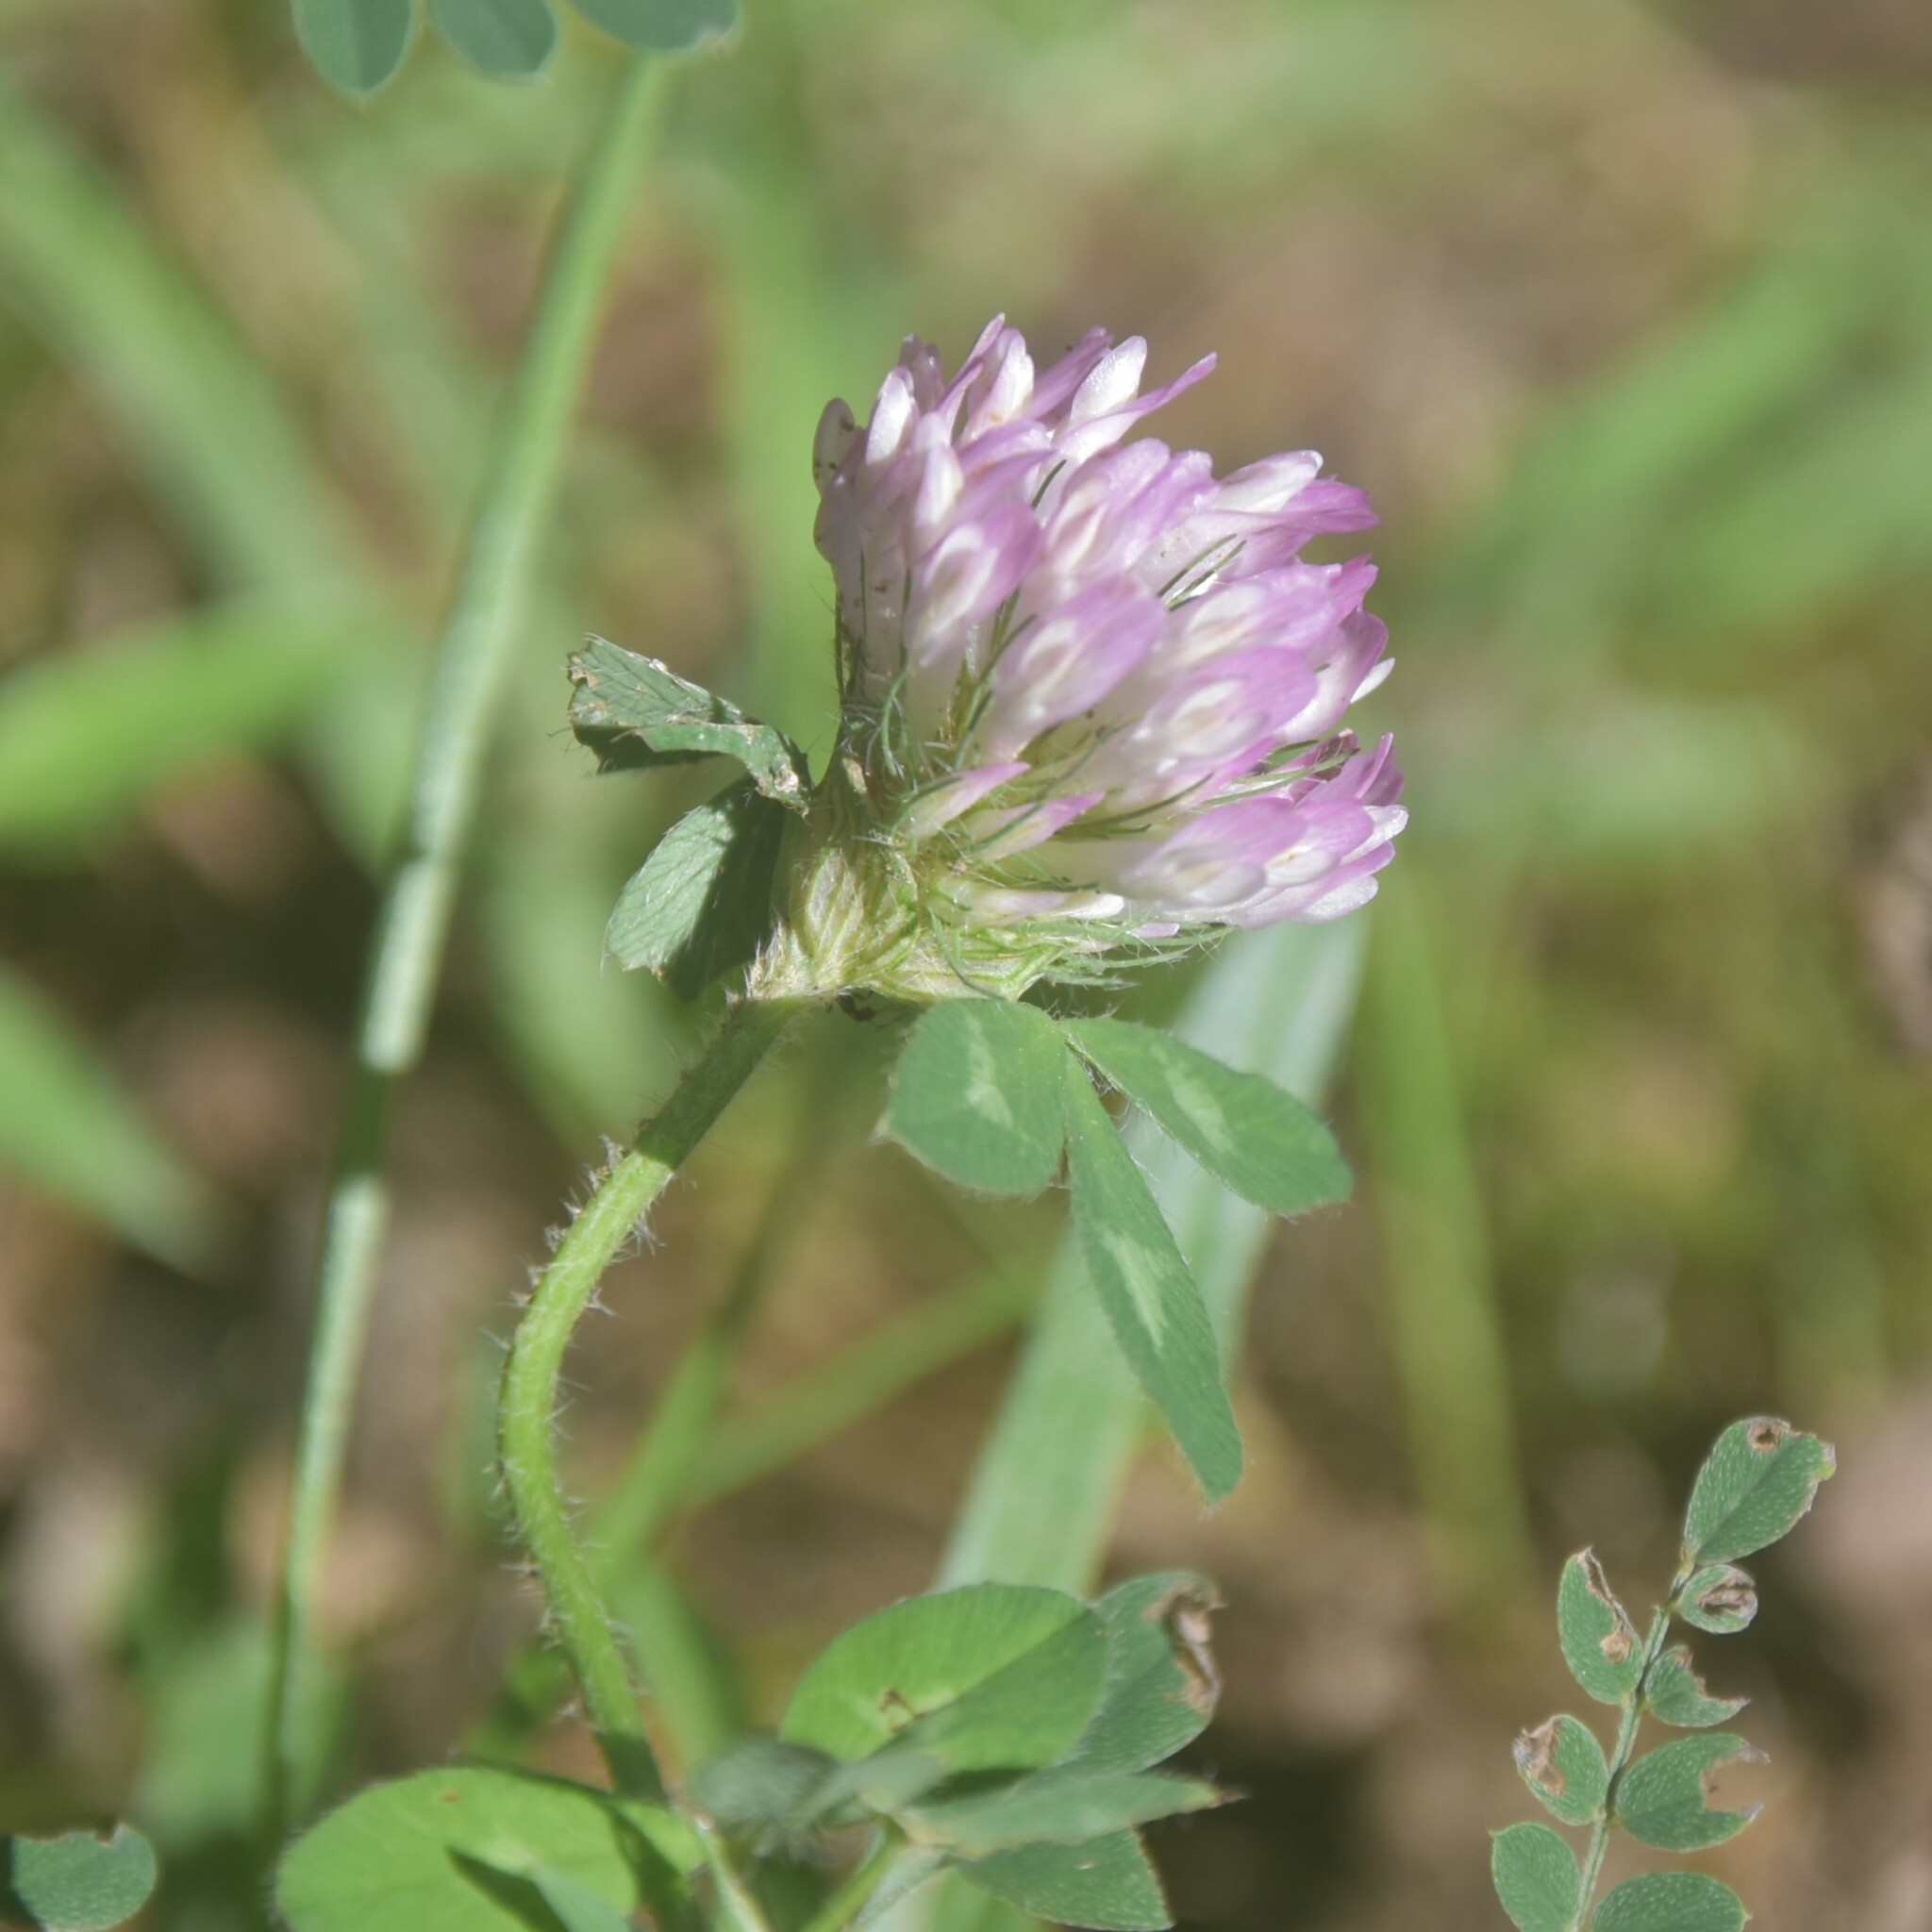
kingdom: Plantae
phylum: Tracheophyta
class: Magnoliopsida
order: Fabales
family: Fabaceae
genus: Trifolium
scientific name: Trifolium pratense
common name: Red clover
